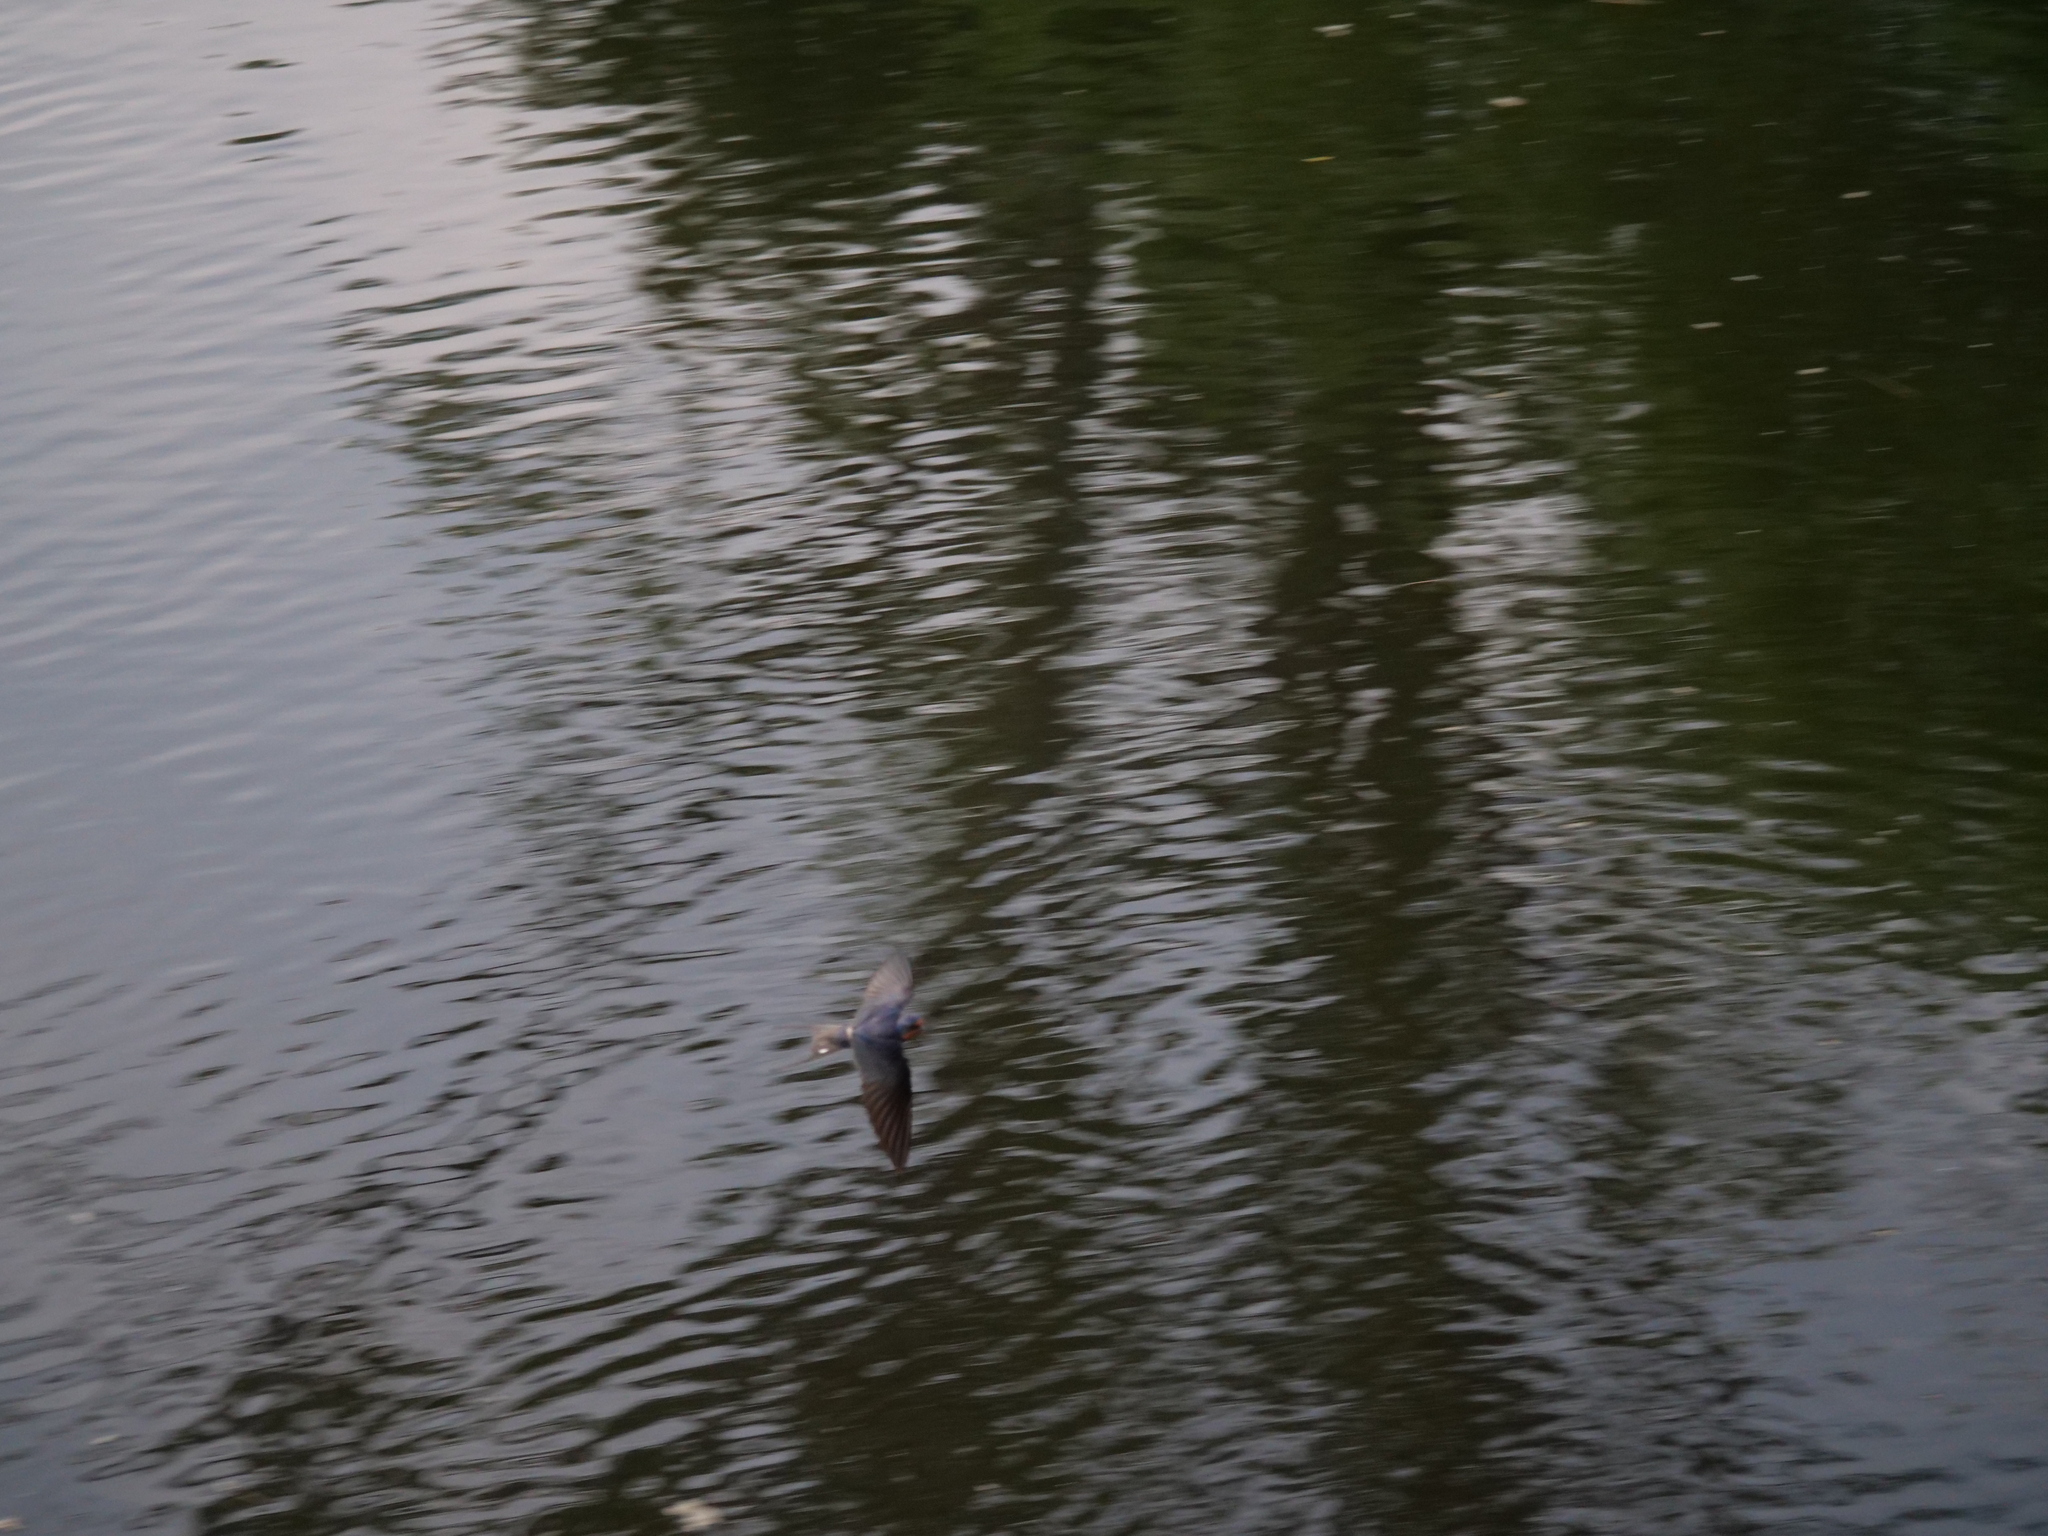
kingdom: Animalia
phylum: Chordata
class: Aves
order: Passeriformes
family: Hirundinidae
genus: Hirundo
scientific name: Hirundo rustica
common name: Barn swallow
